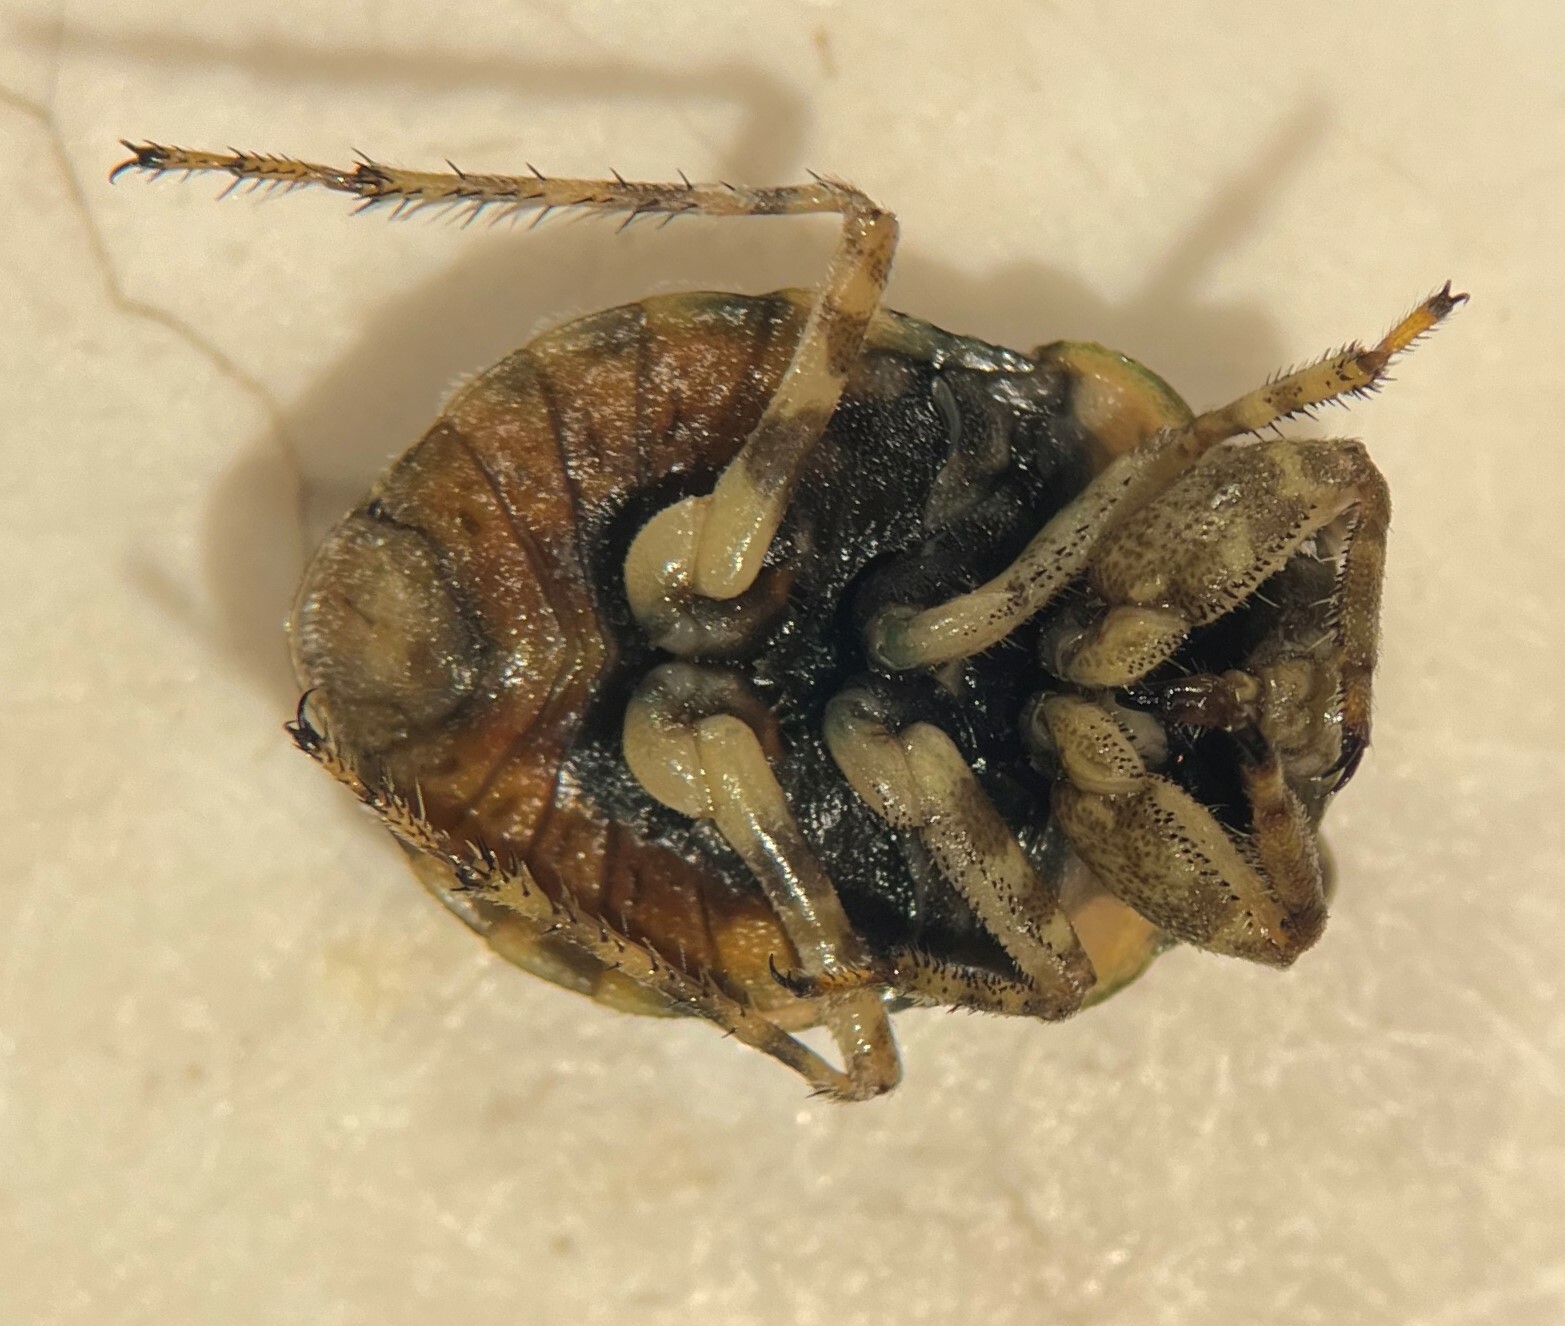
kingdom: Animalia
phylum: Arthropoda
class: Insecta
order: Hemiptera
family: Gelastocoridae
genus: Gelastocoris
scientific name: Gelastocoris rotundatus
